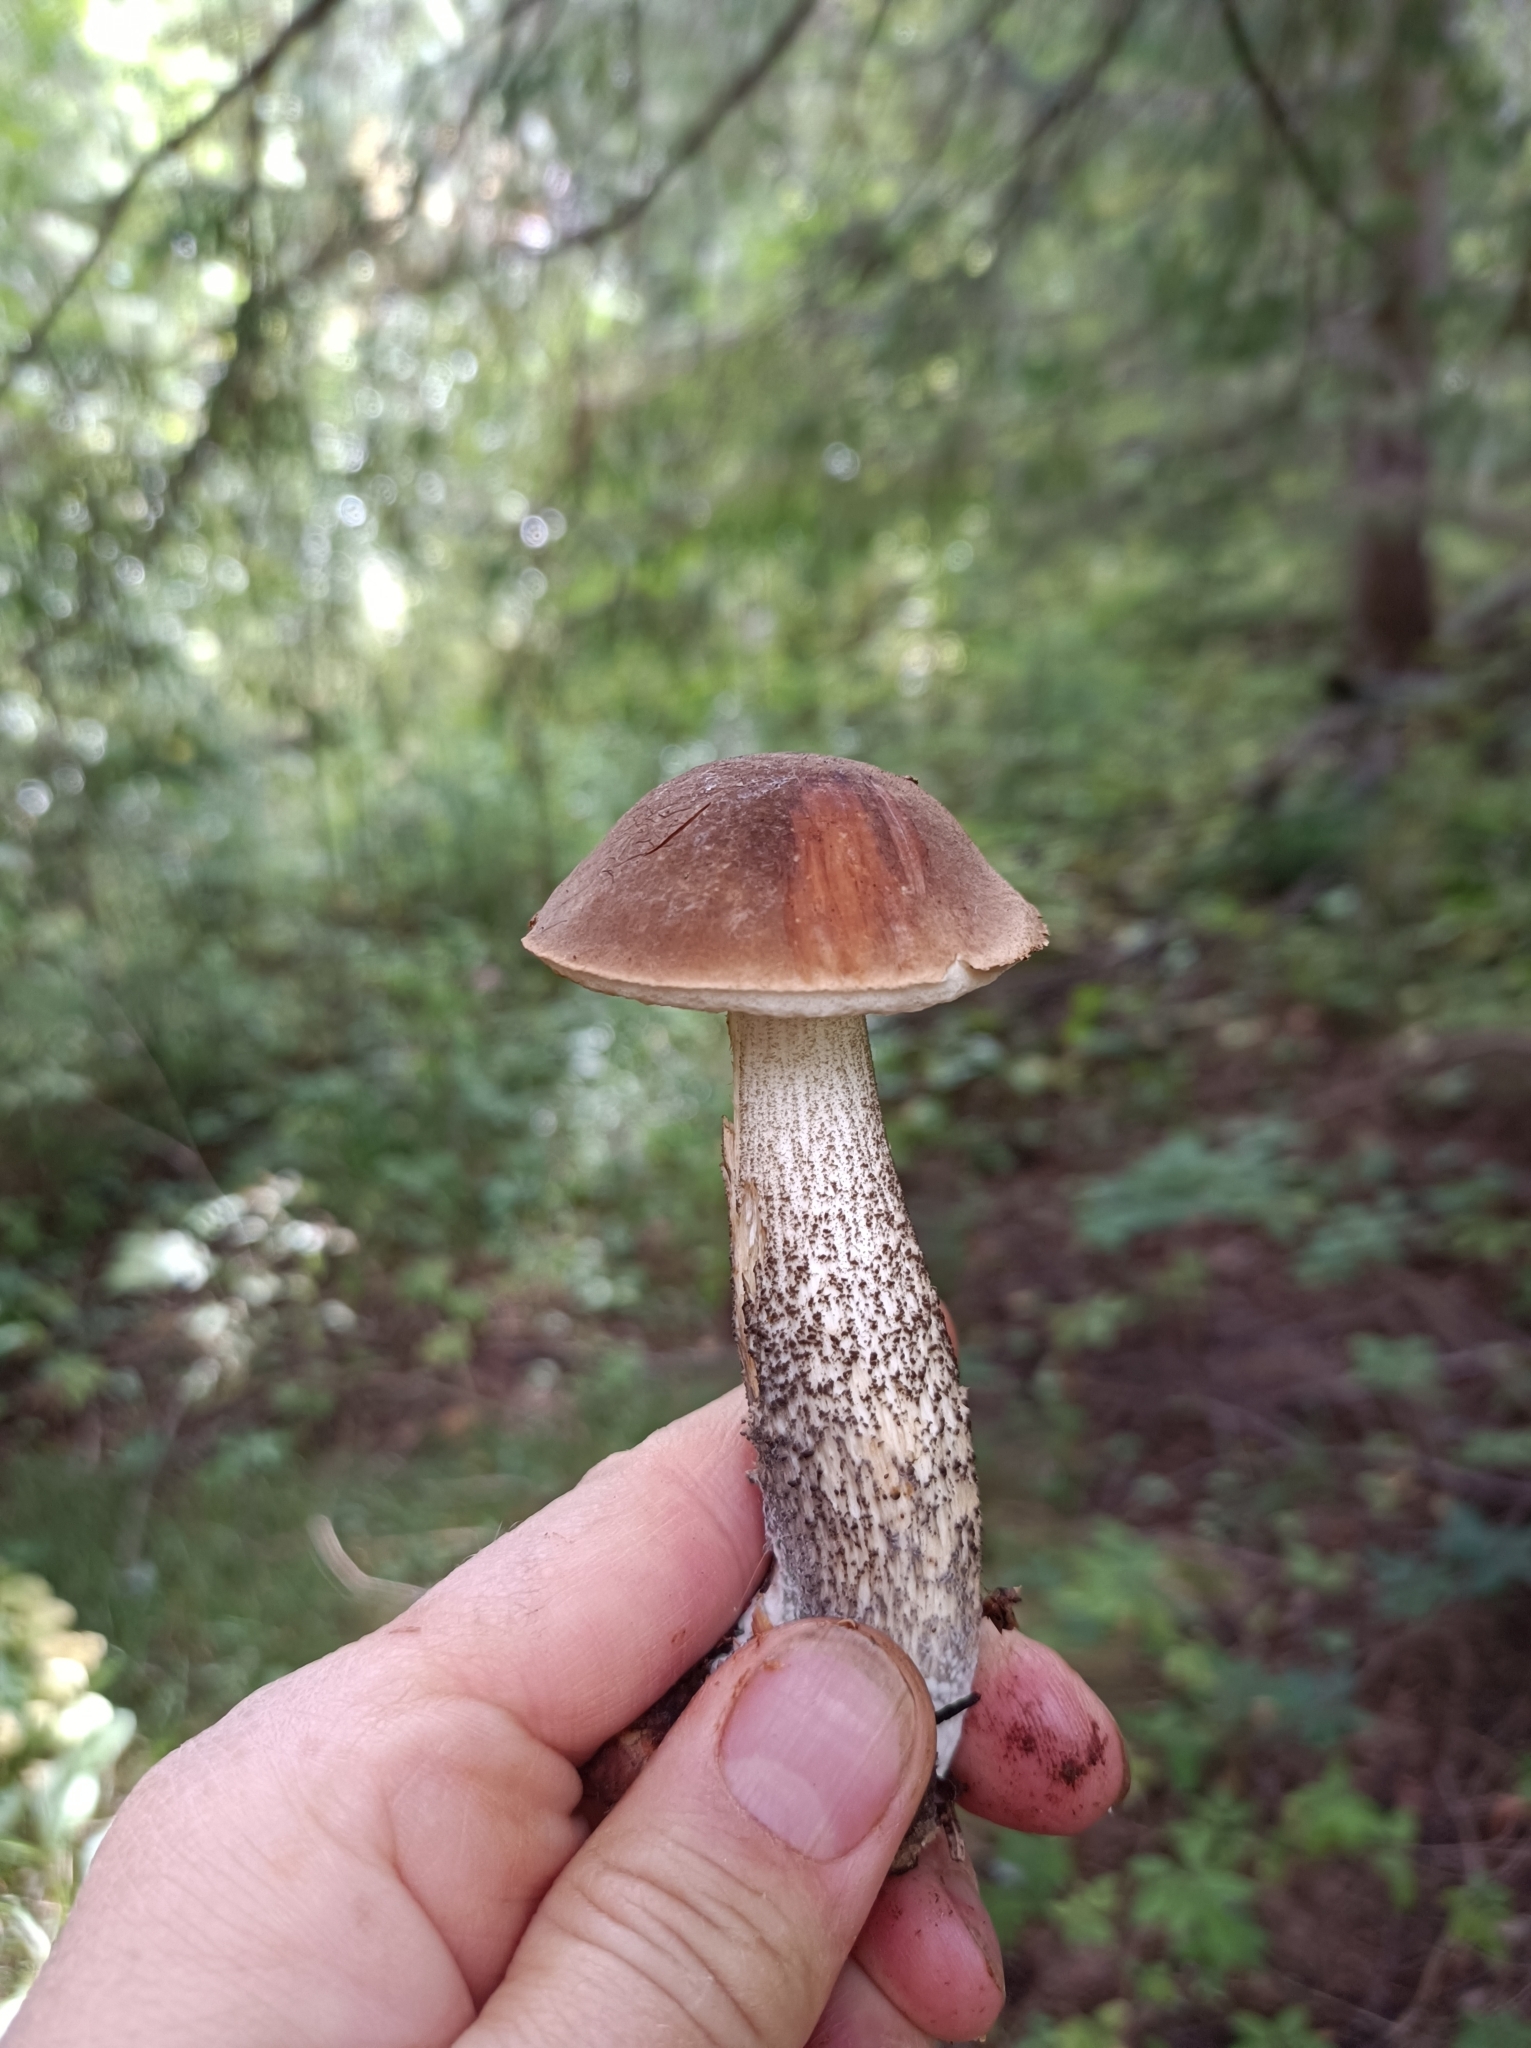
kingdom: Fungi
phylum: Basidiomycota
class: Agaricomycetes
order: Boletales
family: Boletaceae
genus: Leccinum
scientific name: Leccinum scabrum
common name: Blushing bolete
